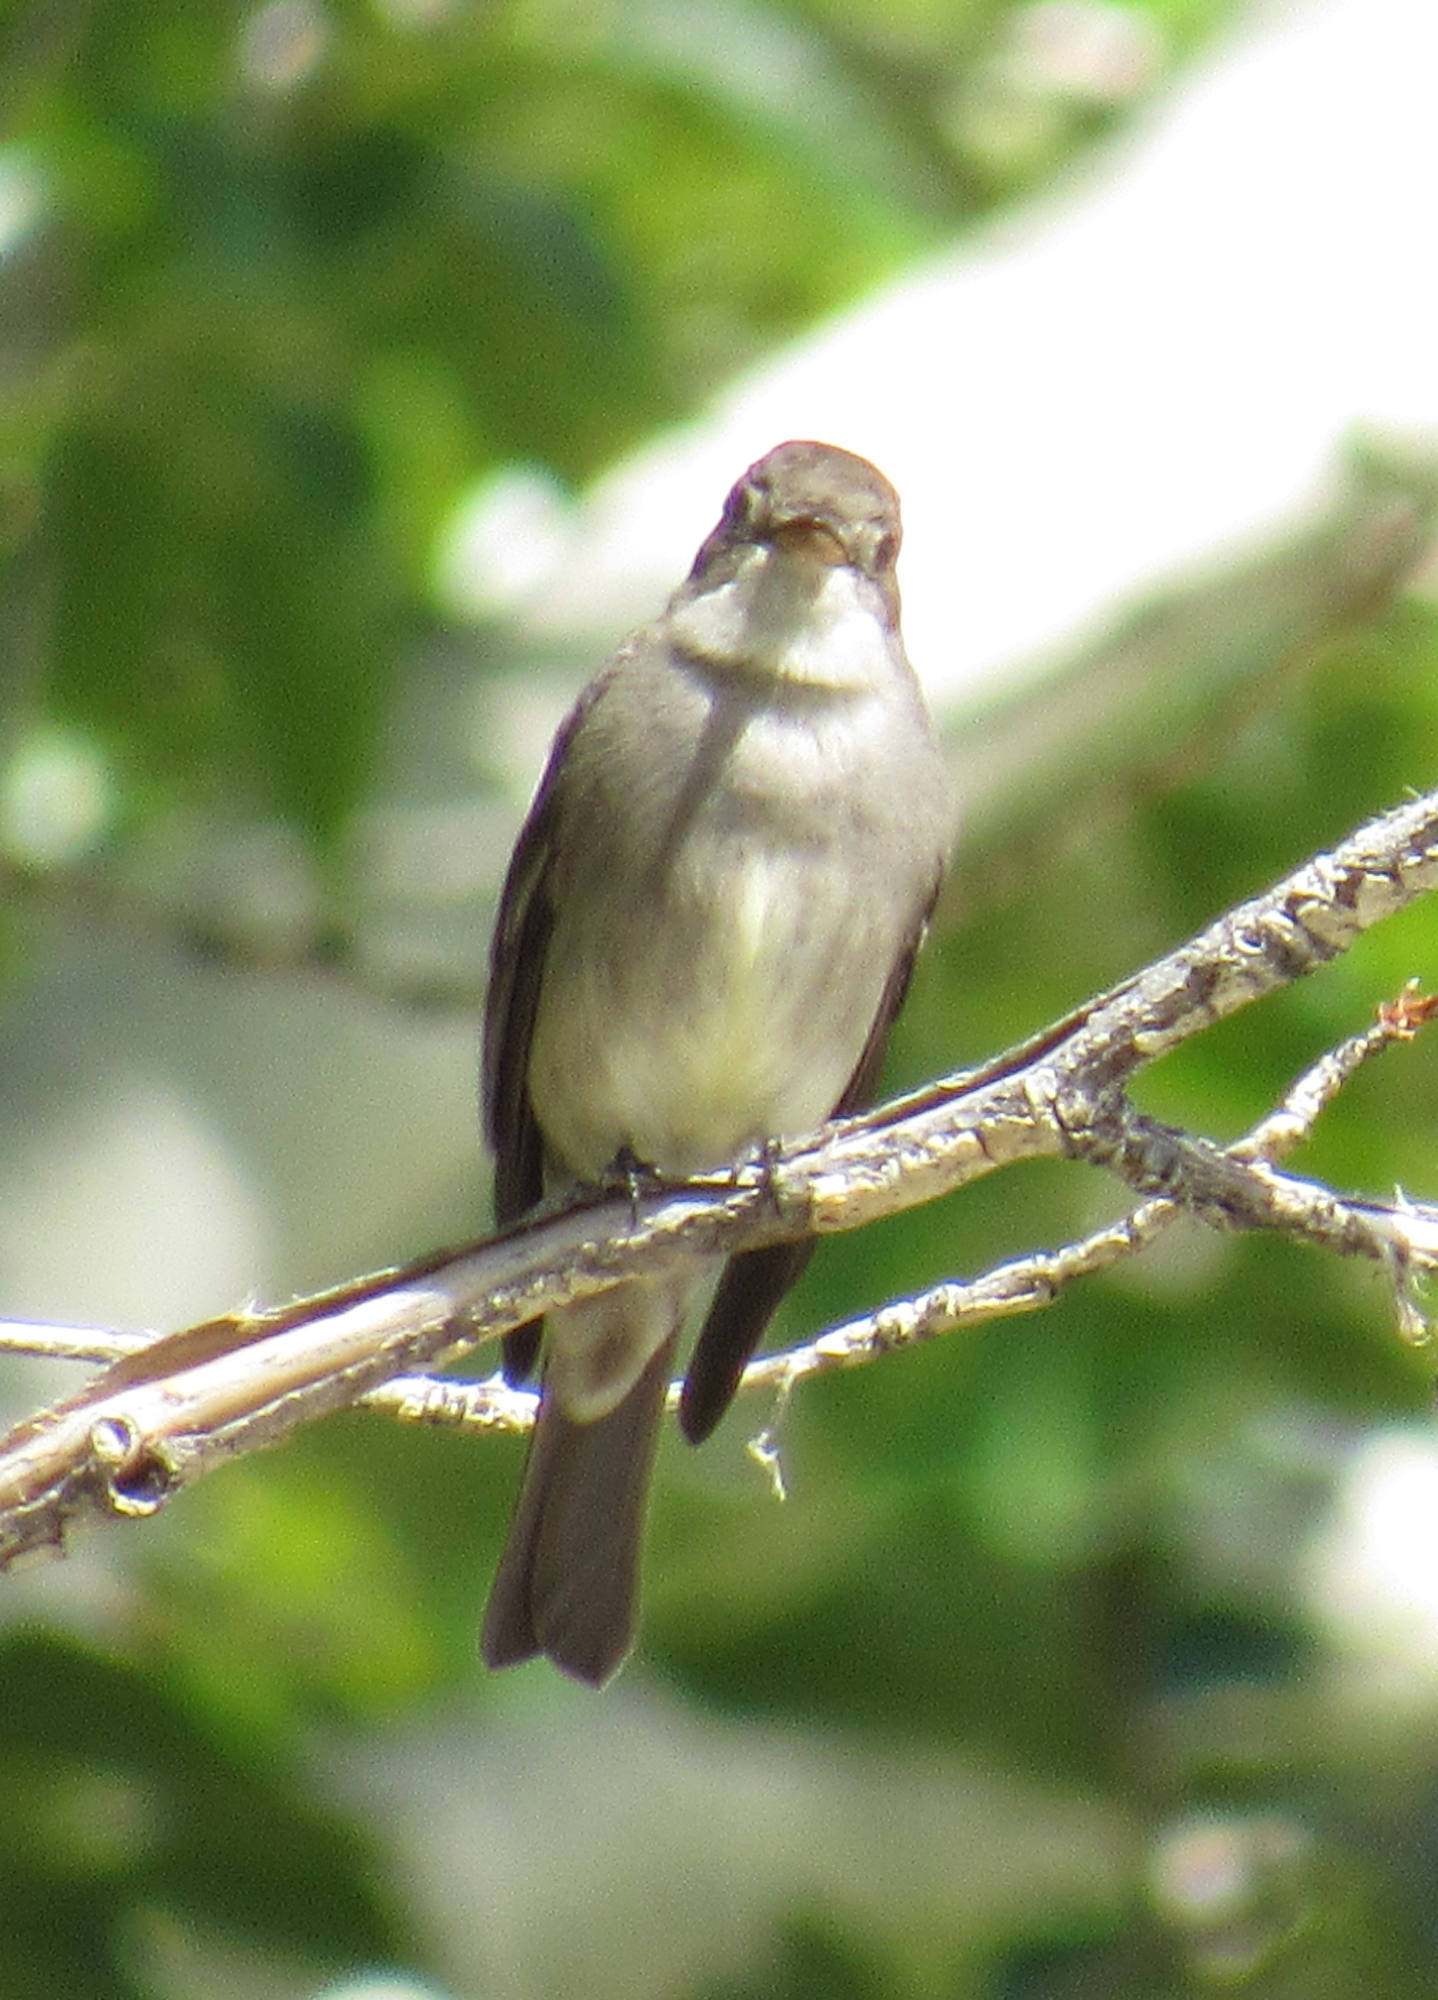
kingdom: Animalia
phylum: Chordata
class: Aves
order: Passeriformes
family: Tyrannidae
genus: Contopus
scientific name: Contopus sordidulus
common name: Western wood-pewee
